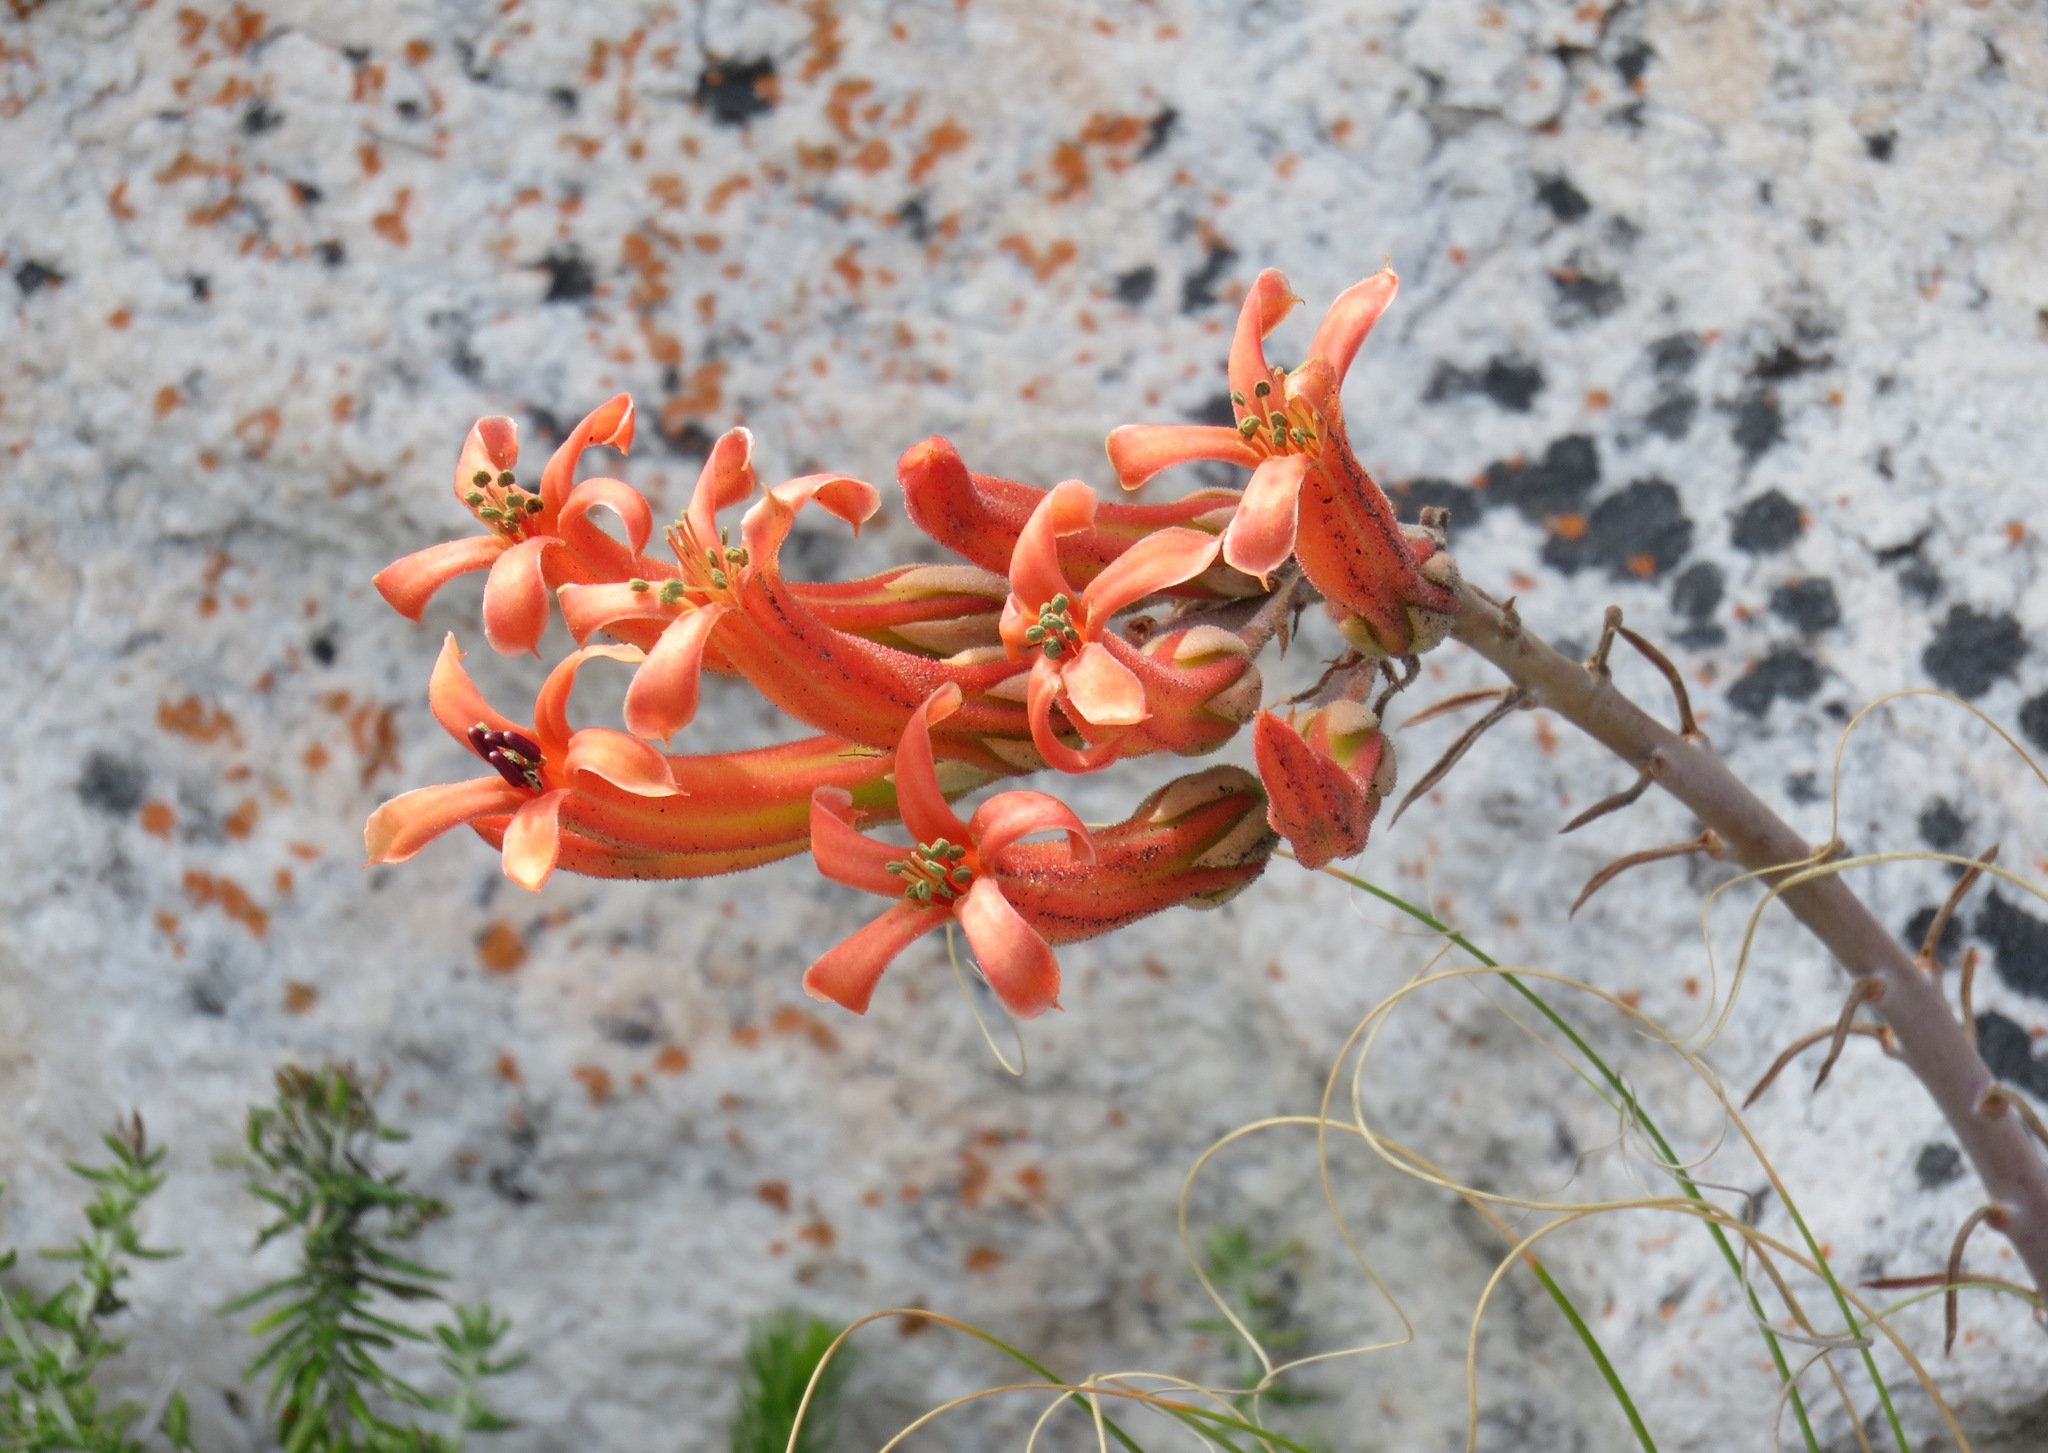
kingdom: Plantae
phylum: Tracheophyta
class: Magnoliopsida
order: Saxifragales
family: Crassulaceae
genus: Tylecodon
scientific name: Tylecodon grandiflorus
